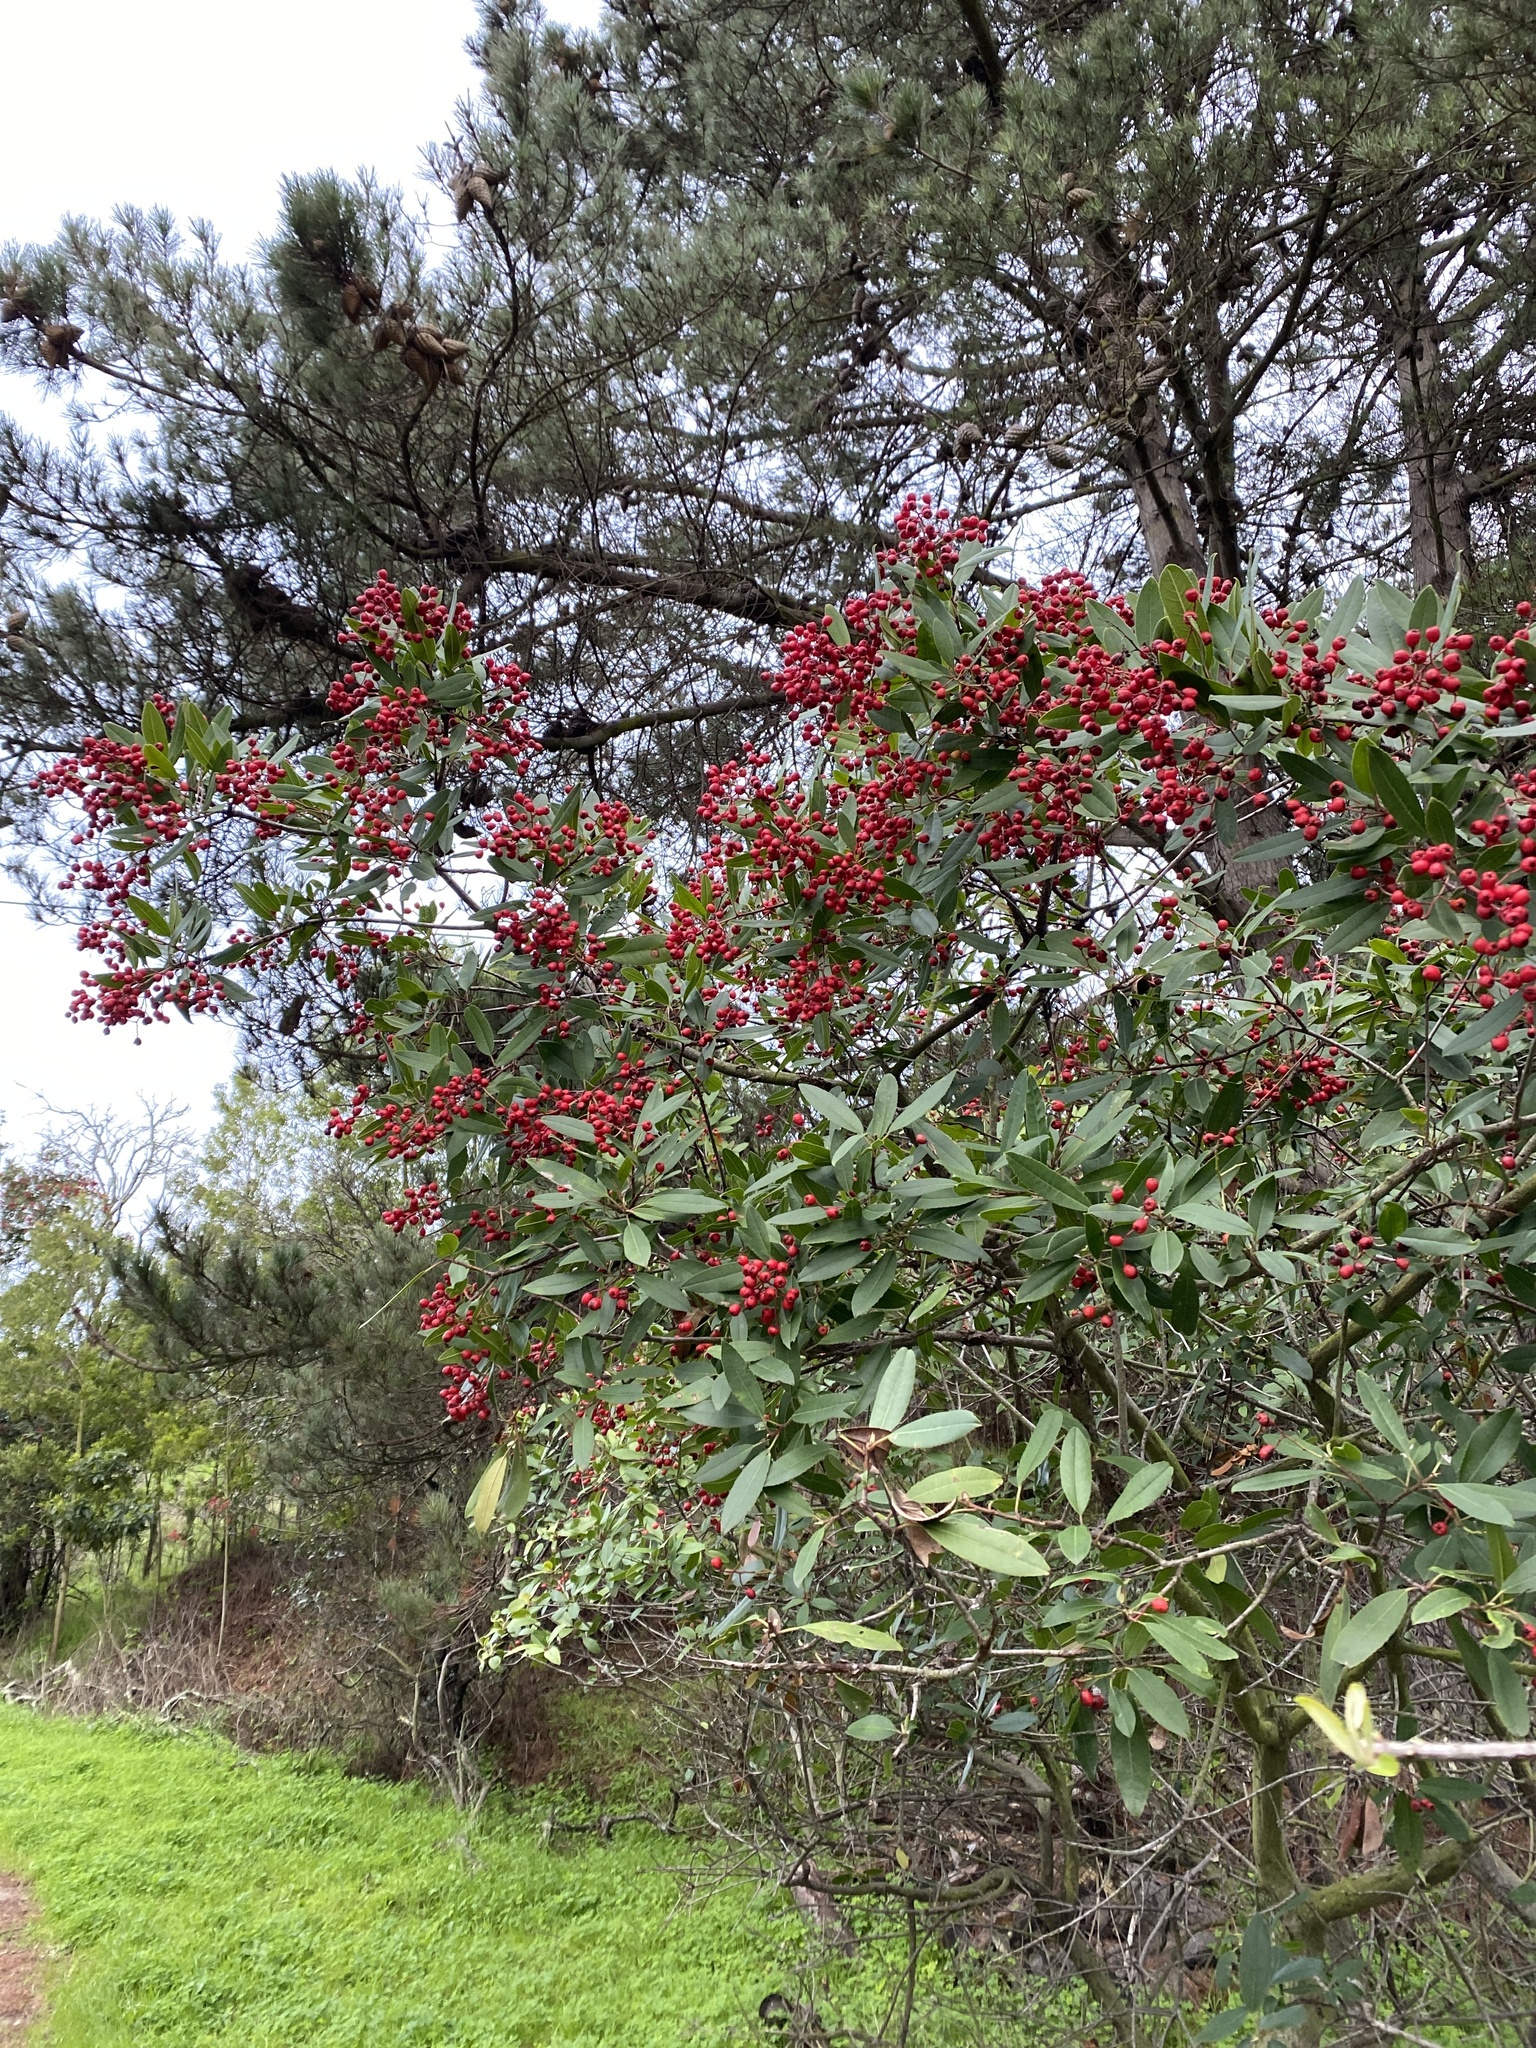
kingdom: Plantae
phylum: Tracheophyta
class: Magnoliopsida
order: Rosales
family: Rosaceae
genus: Heteromeles
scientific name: Heteromeles arbutifolia
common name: California-holly
